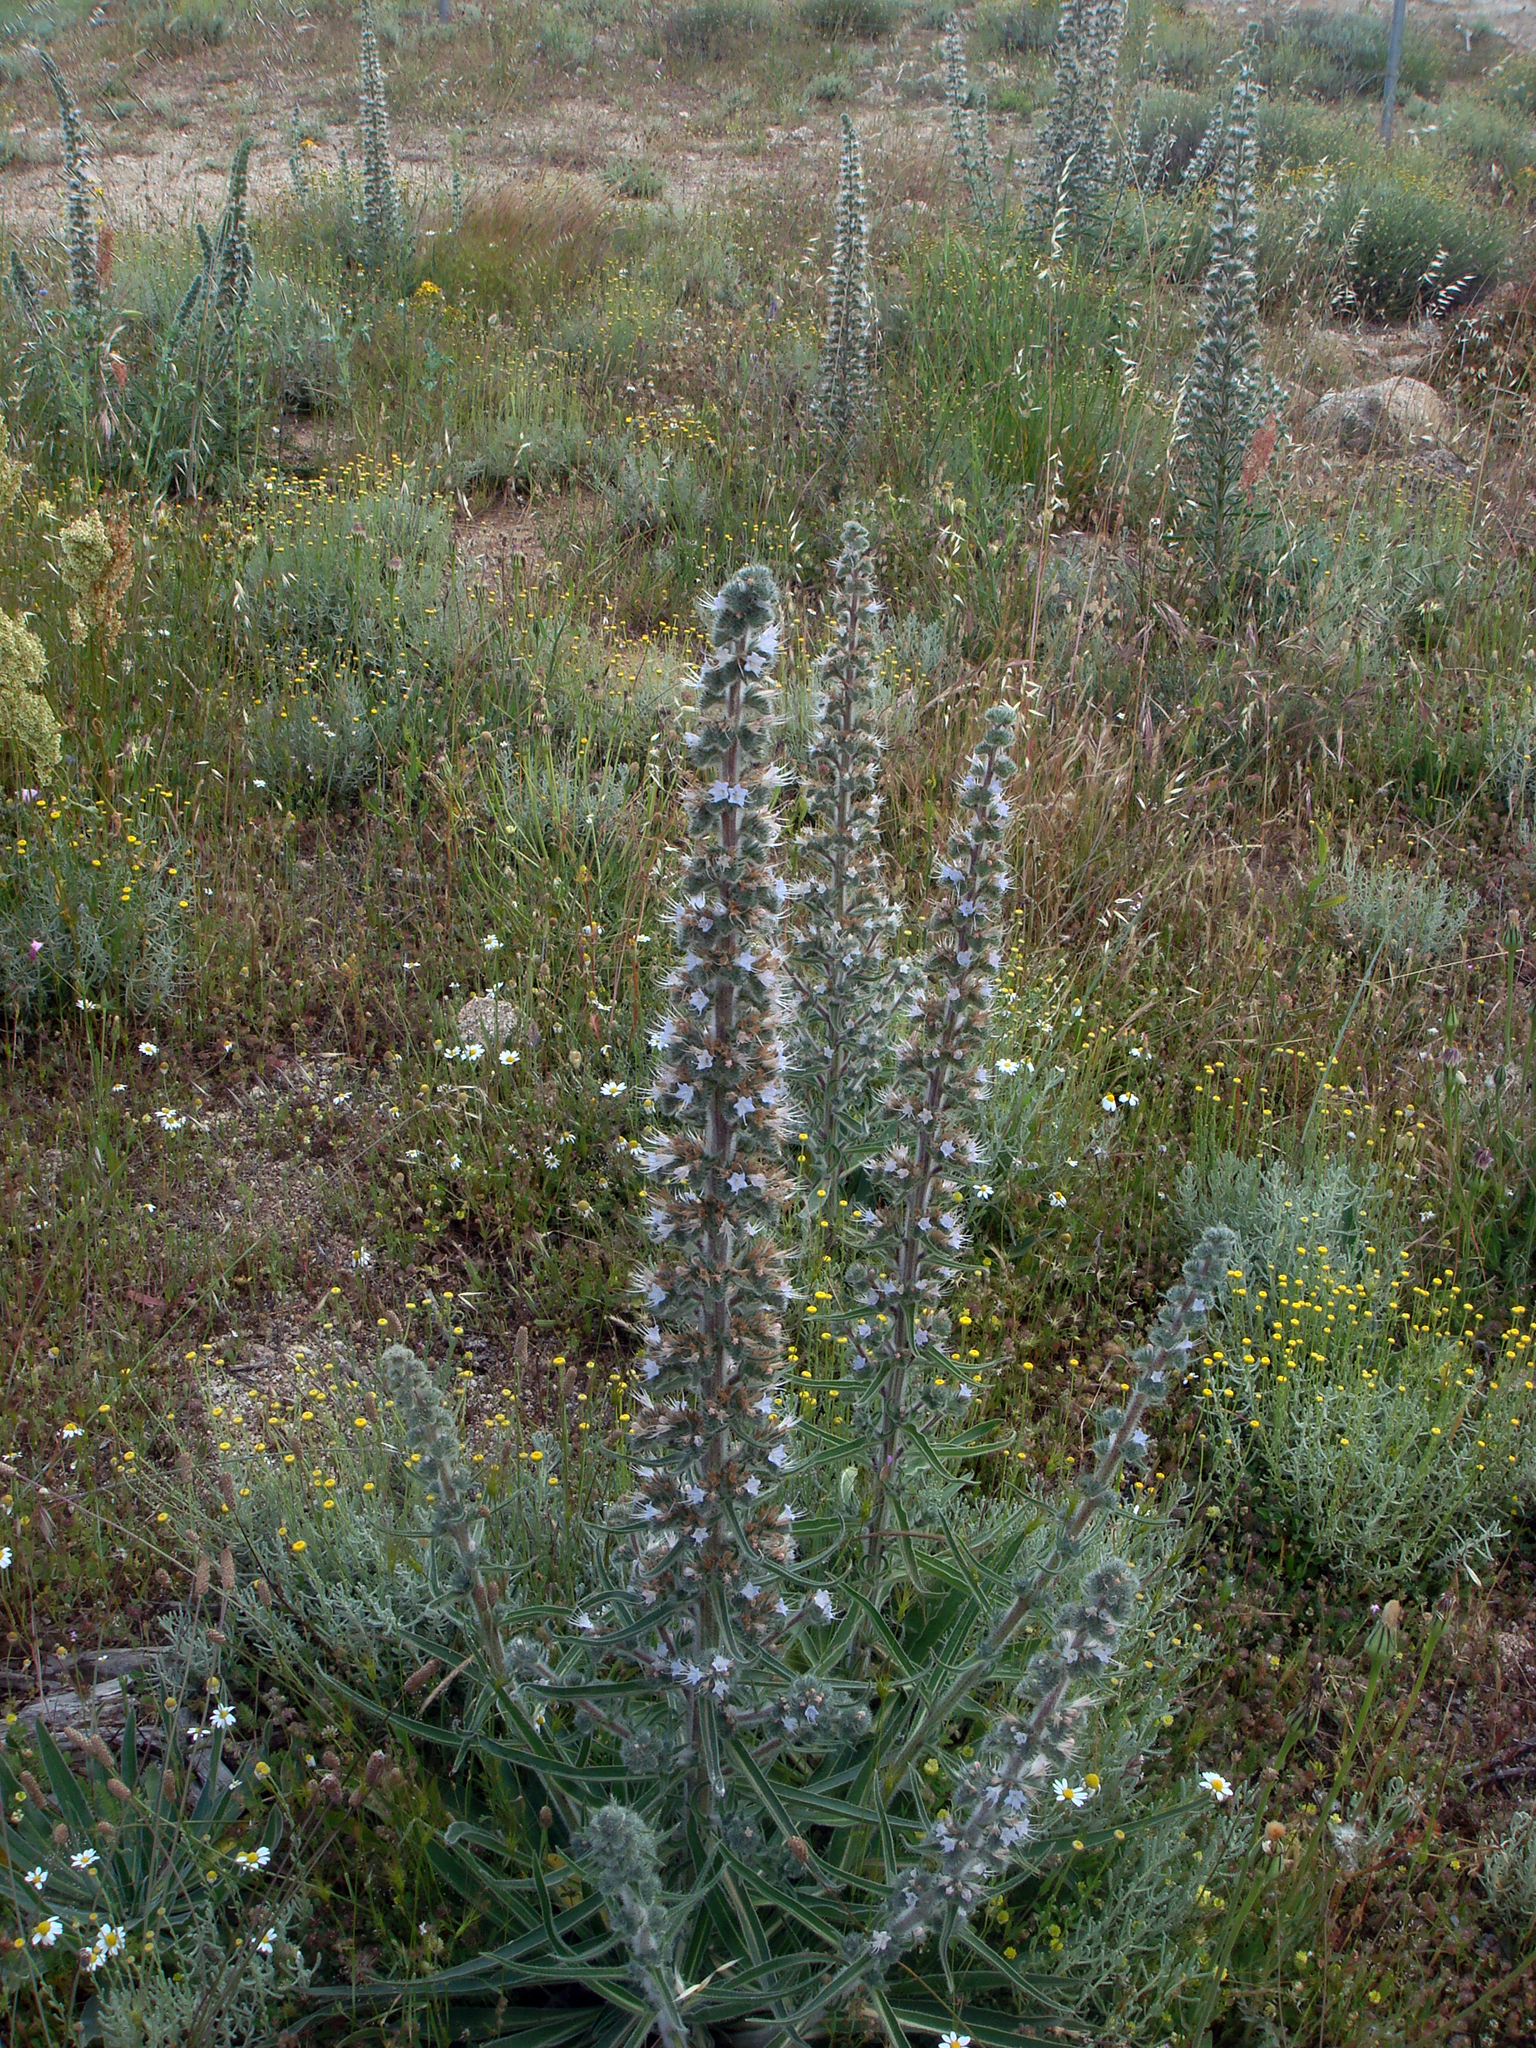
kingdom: Plantae
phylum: Tracheophyta
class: Magnoliopsida
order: Boraginales
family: Boraginaceae
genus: Echium
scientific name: Echium italicum
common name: Italian viper's bugloss
